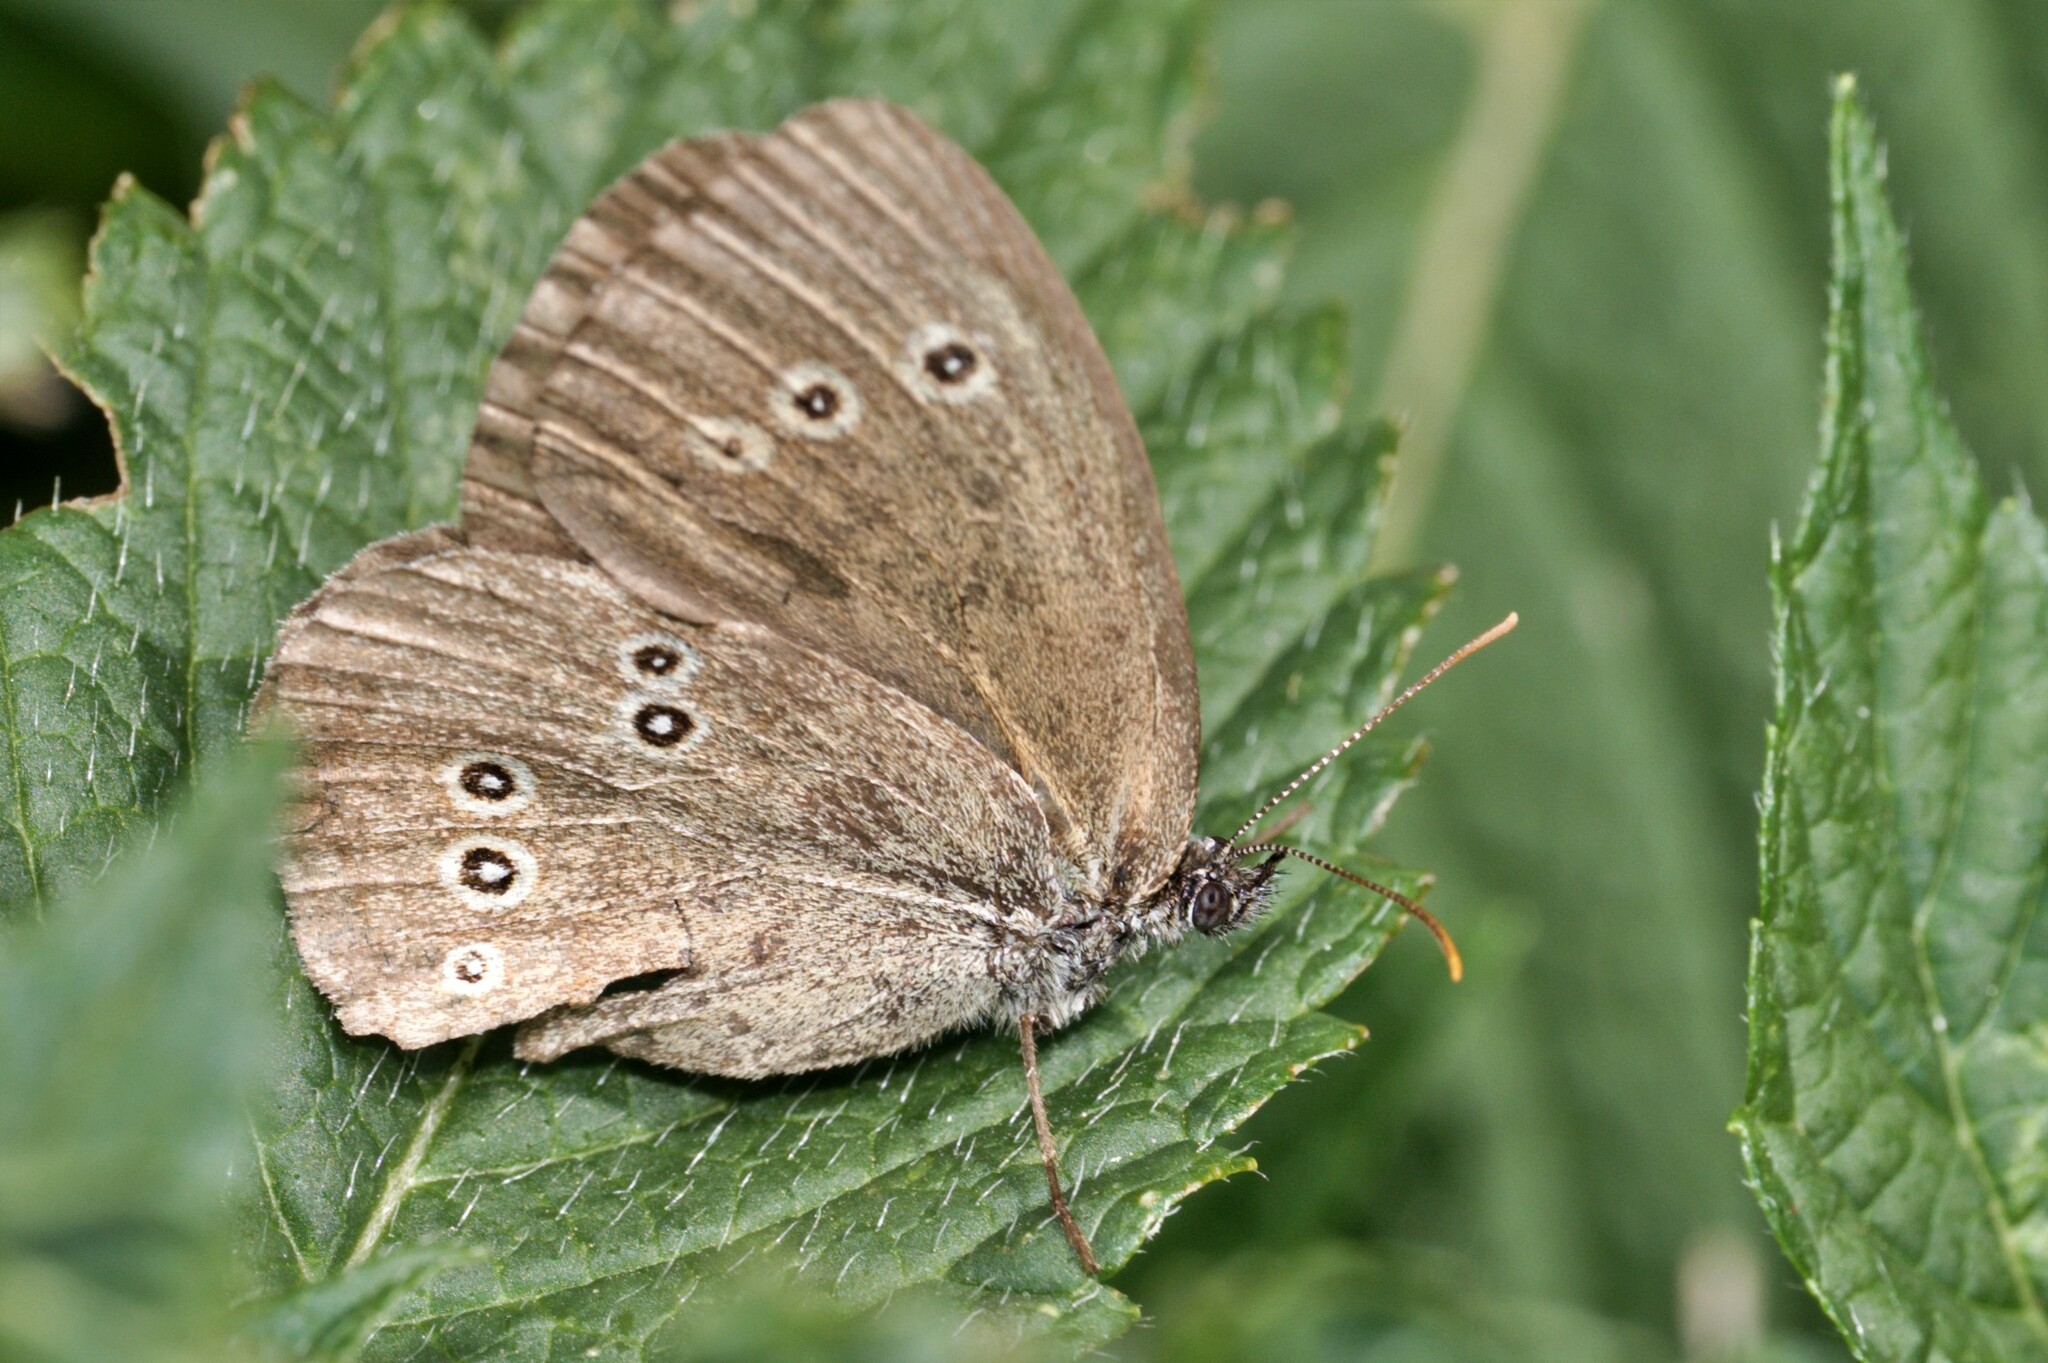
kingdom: Animalia
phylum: Arthropoda
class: Insecta
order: Lepidoptera
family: Nymphalidae
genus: Aphantopus
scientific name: Aphantopus hyperantus
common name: Ringlet
